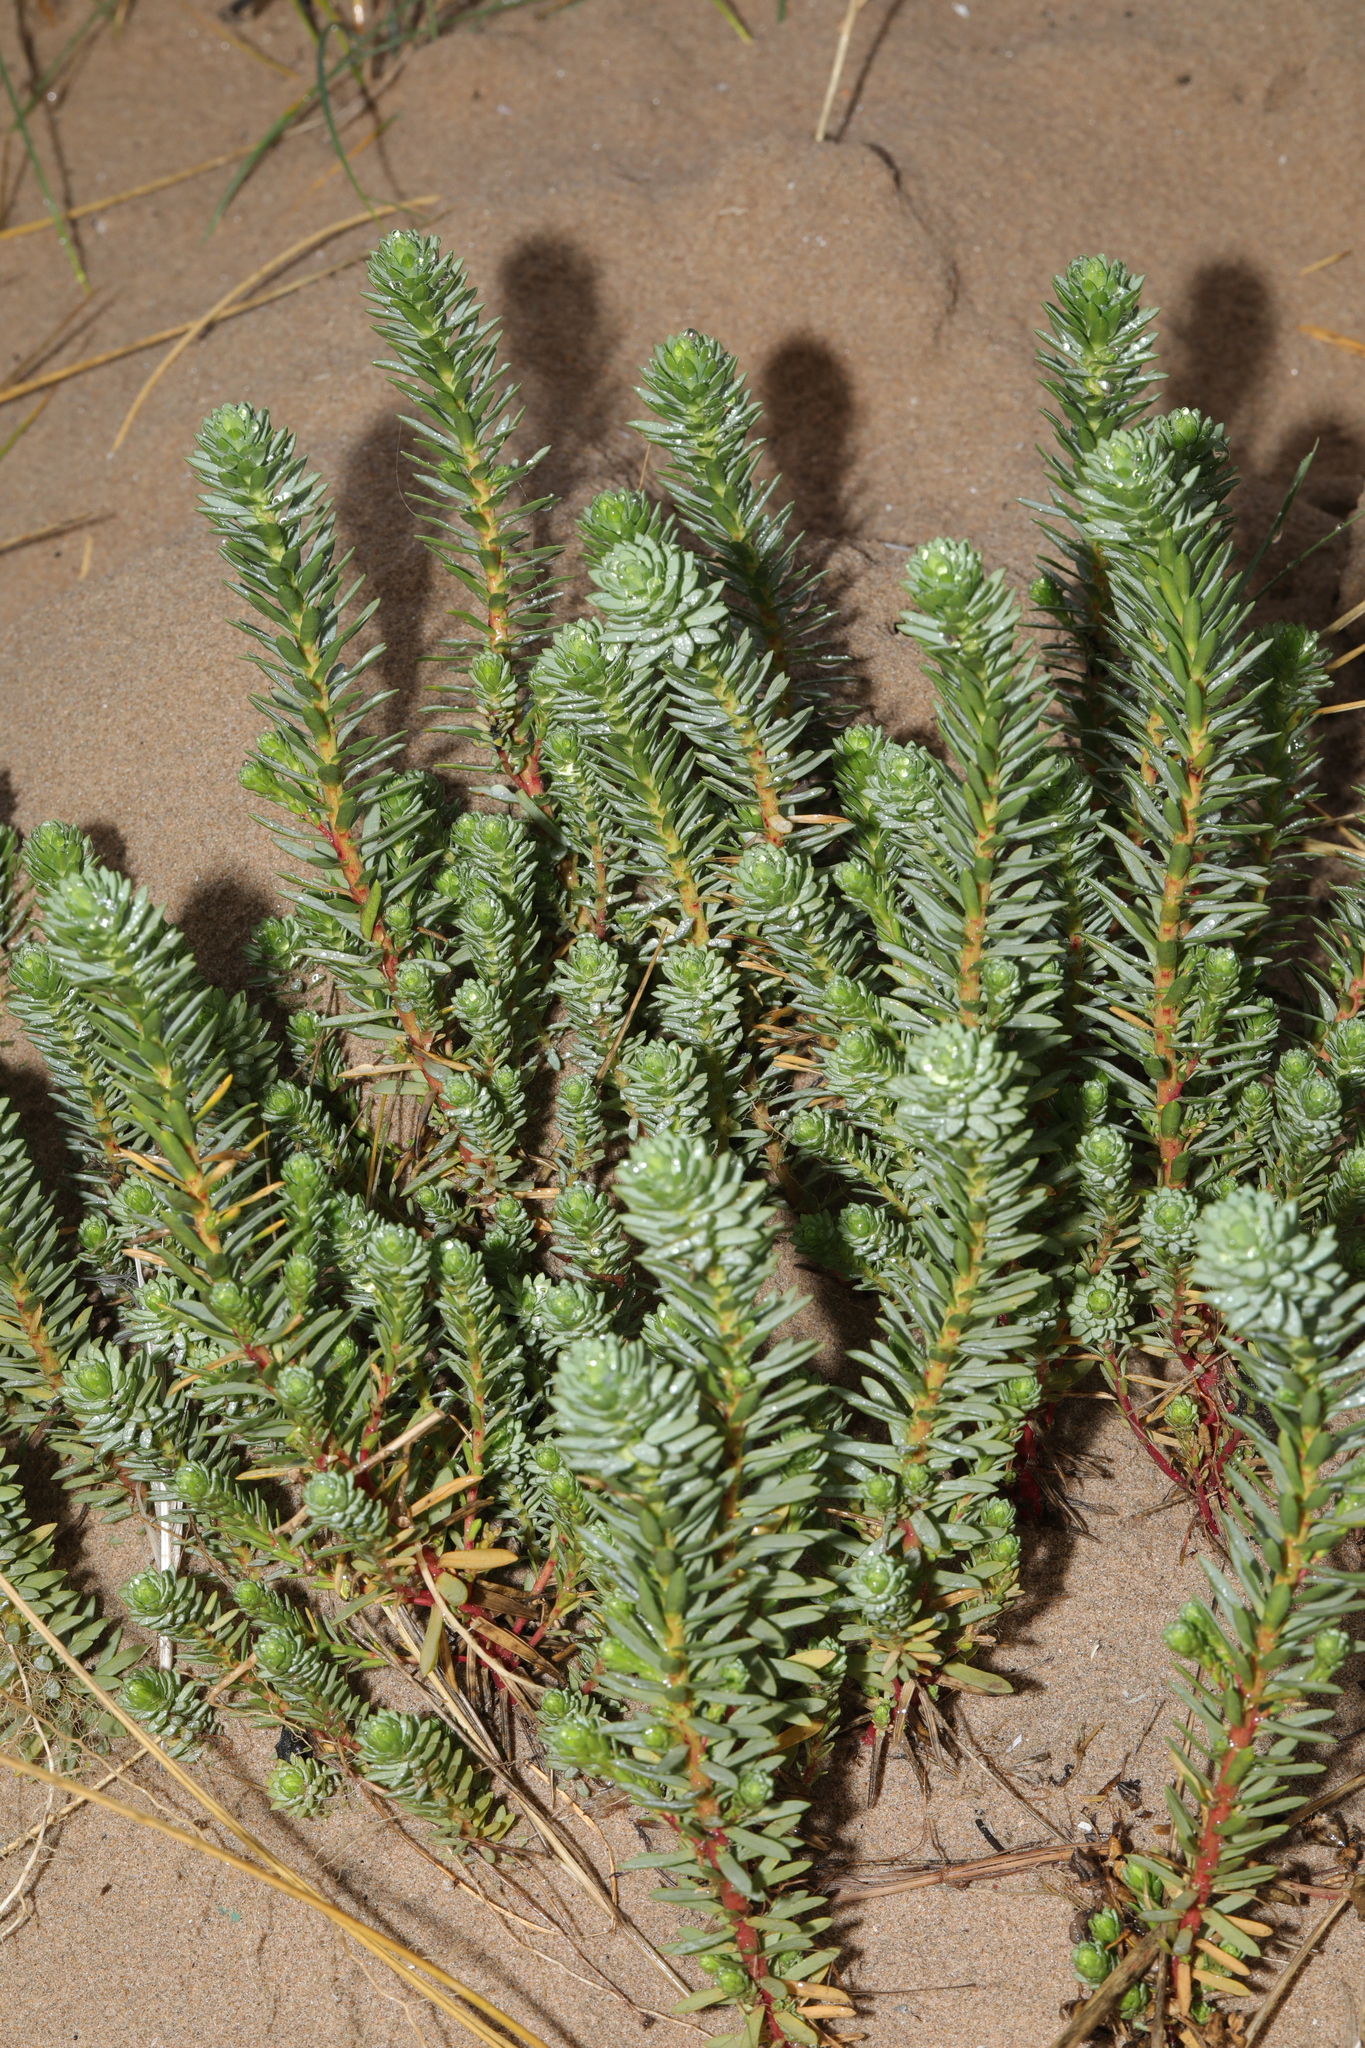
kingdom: Plantae
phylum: Tracheophyta
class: Magnoliopsida
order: Malpighiales
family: Euphorbiaceae
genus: Euphorbia
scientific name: Euphorbia paralias
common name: Sea spurge
